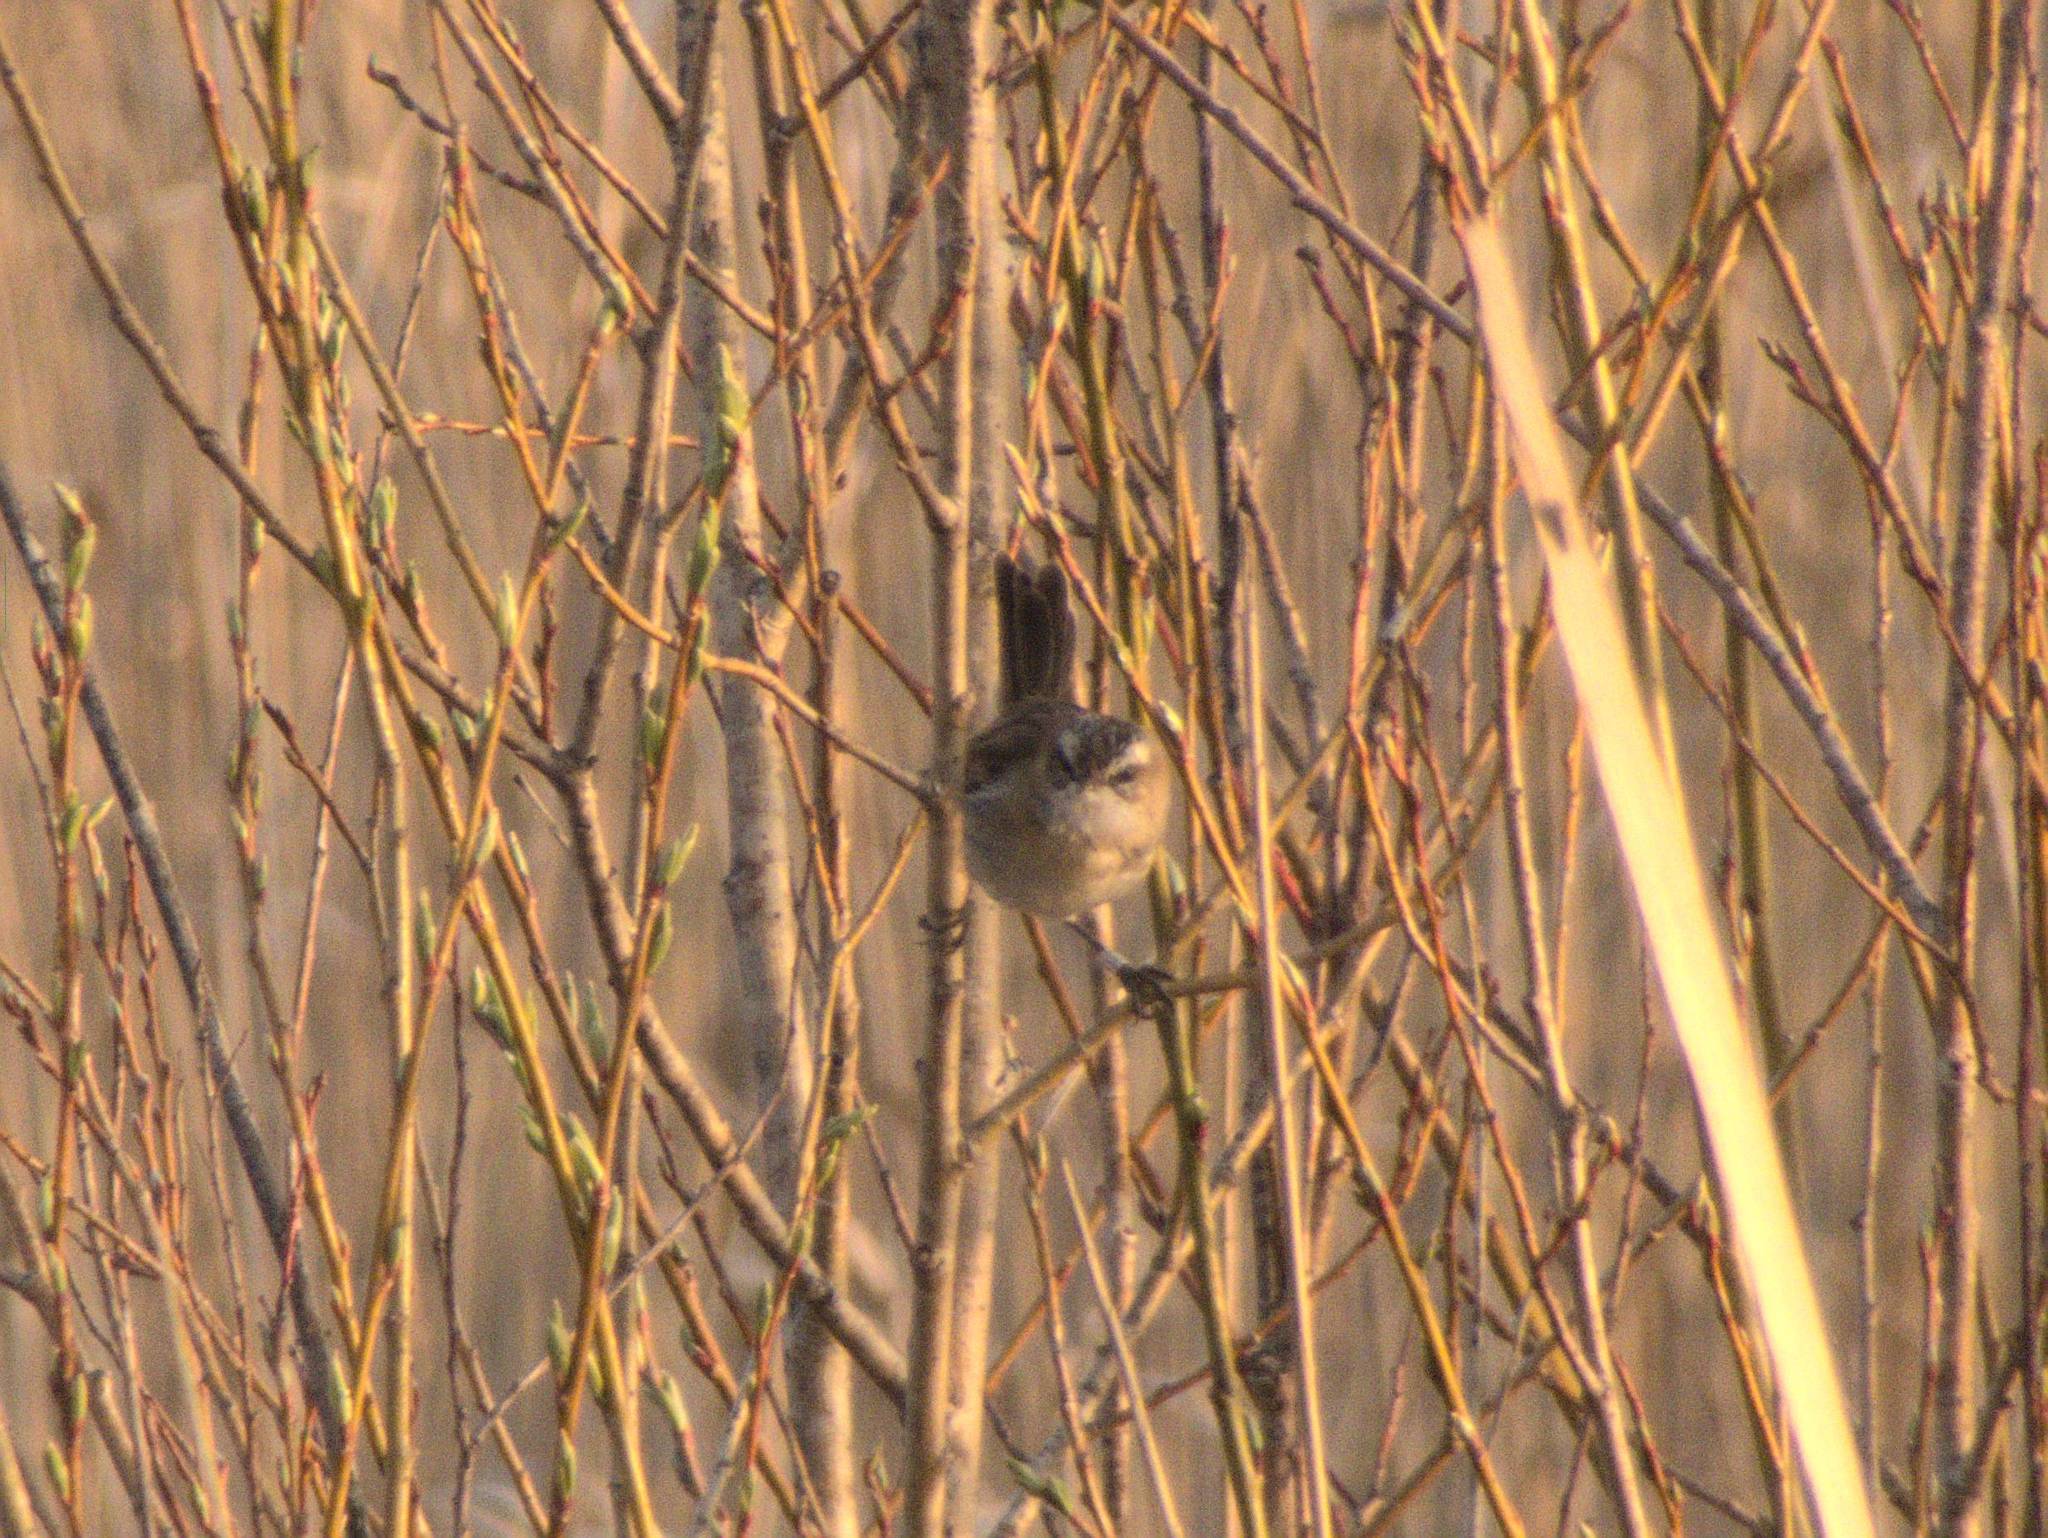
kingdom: Animalia
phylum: Chordata
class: Aves
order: Passeriformes
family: Acrocephalidae
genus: Acrocephalus
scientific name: Acrocephalus melanopogon
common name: Moustached warbler
